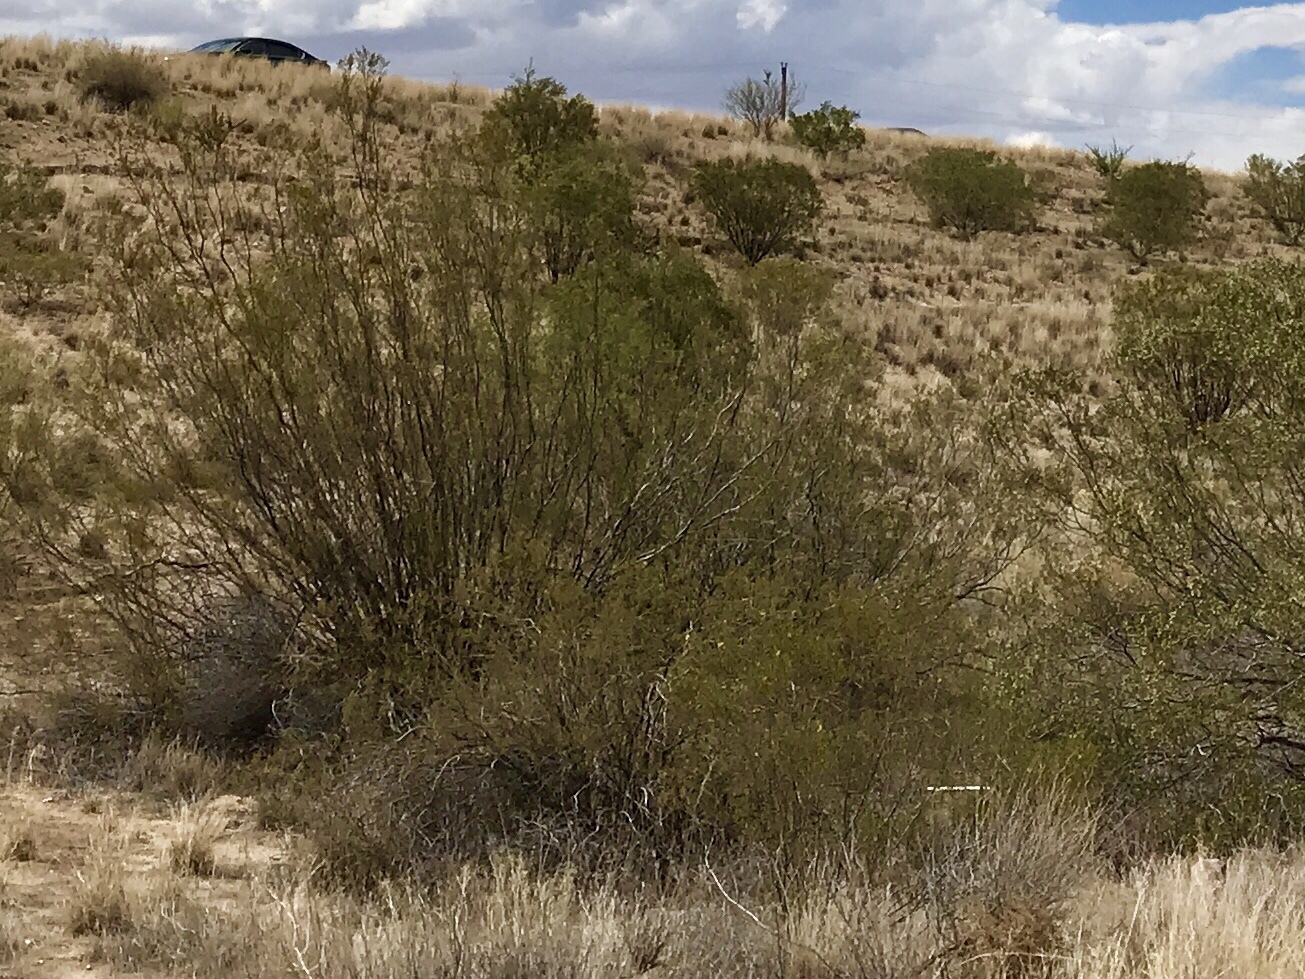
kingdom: Plantae
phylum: Tracheophyta
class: Magnoliopsida
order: Zygophyllales
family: Zygophyllaceae
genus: Larrea
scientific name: Larrea tridentata
